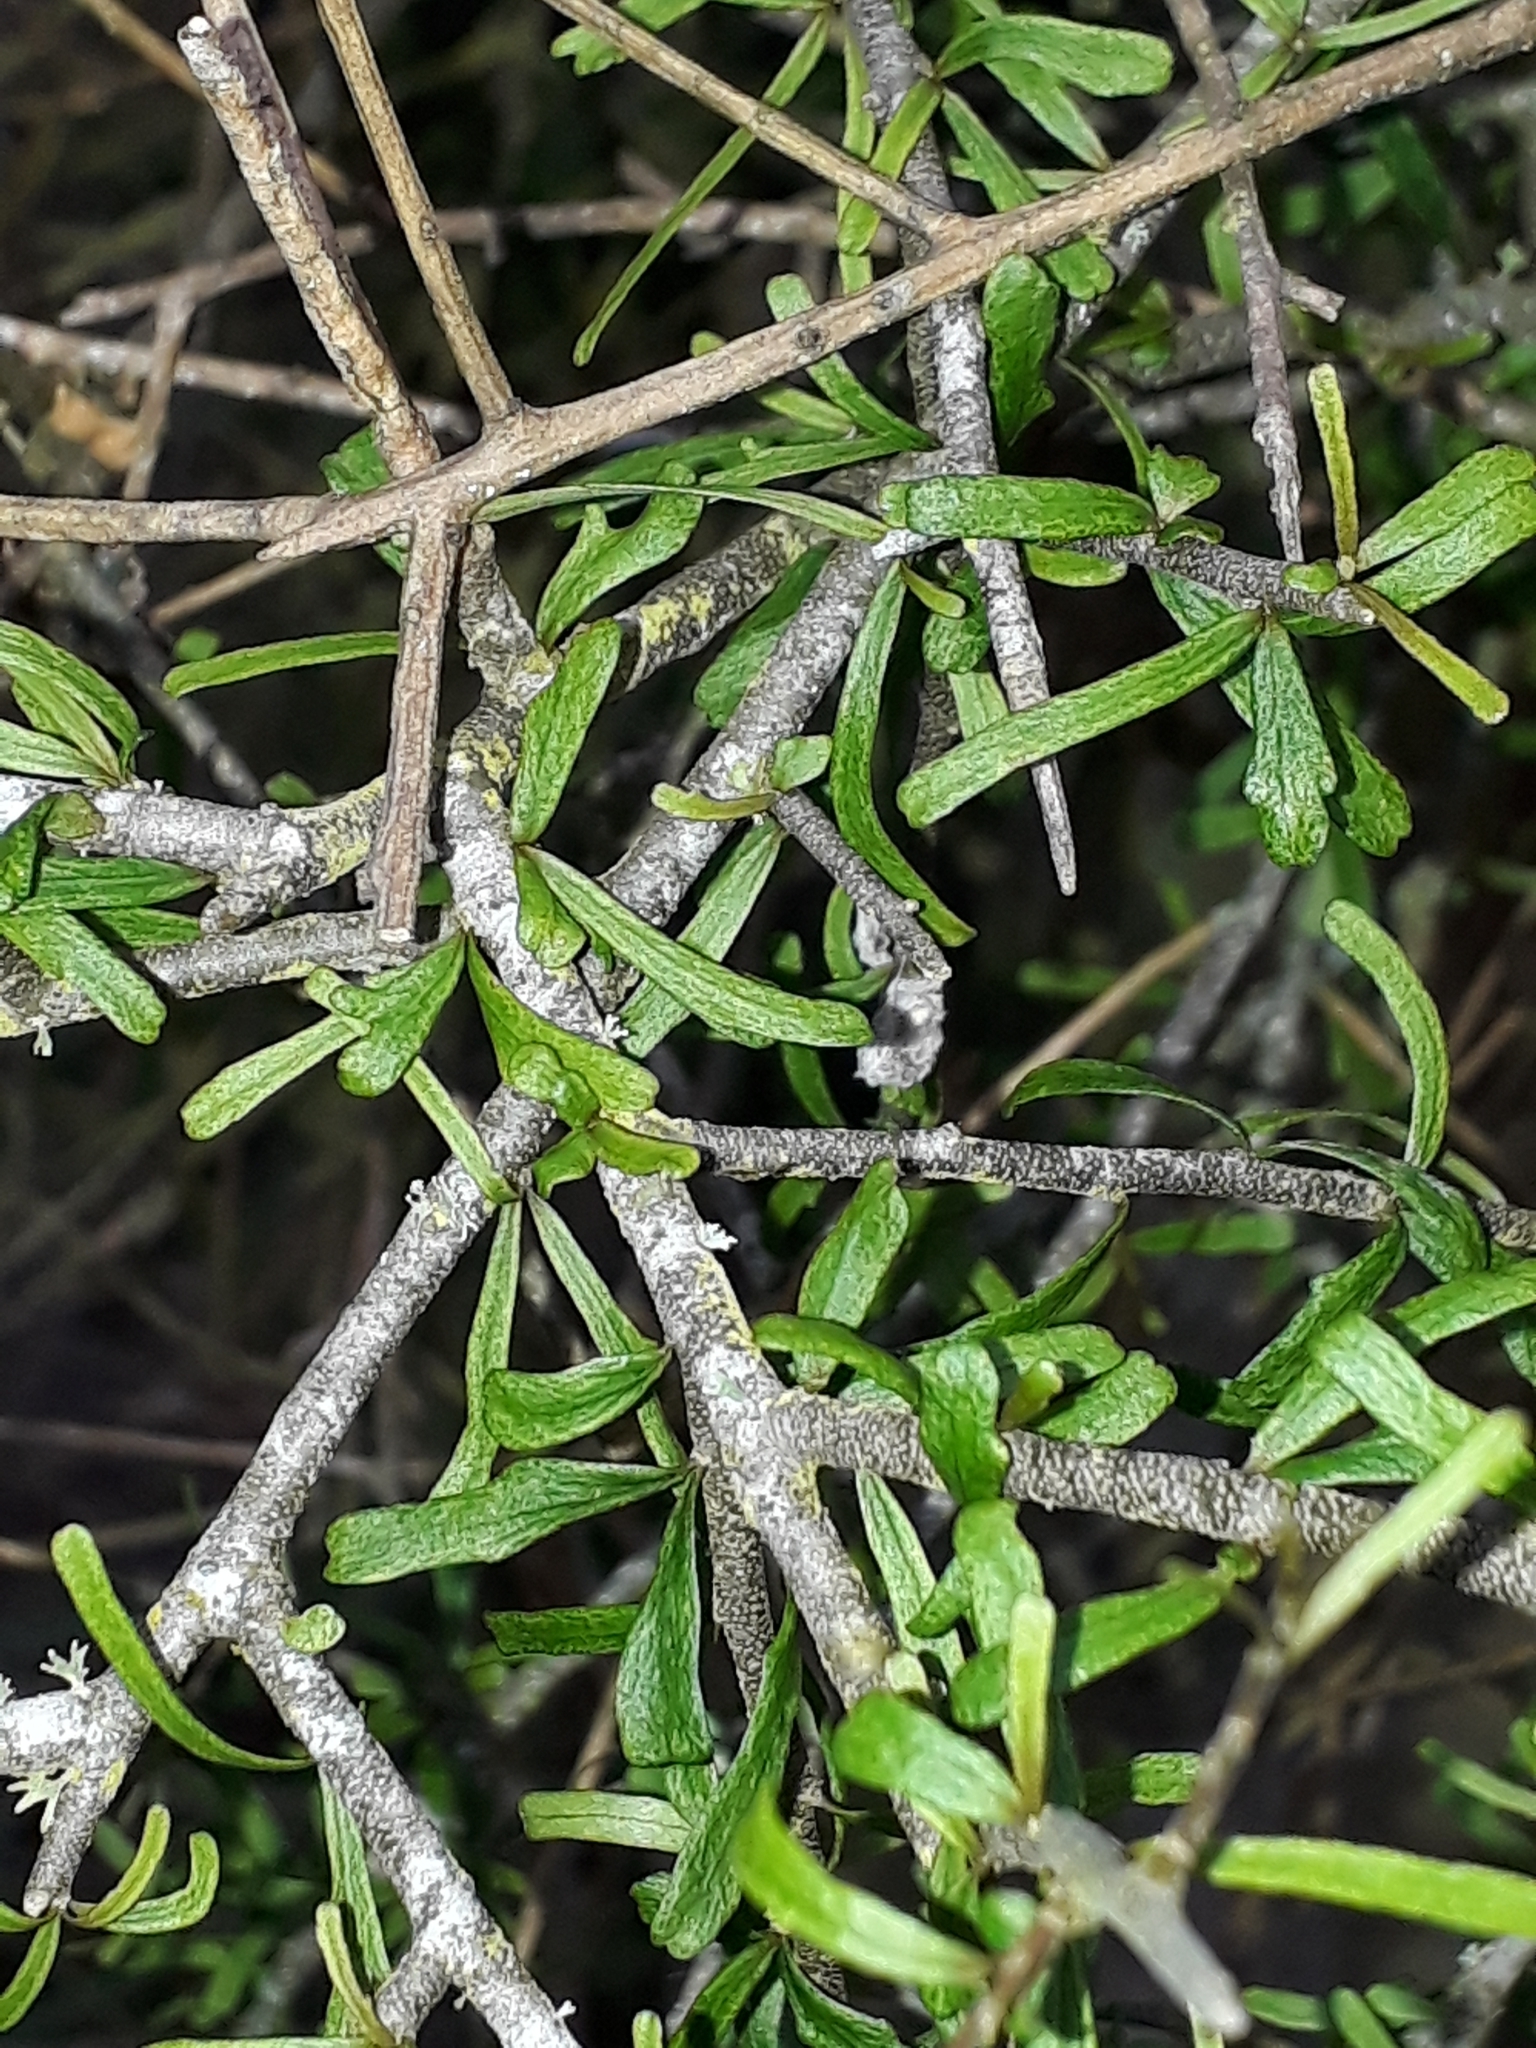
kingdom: Plantae
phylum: Tracheophyta
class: Magnoliopsida
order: Malpighiales
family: Violaceae
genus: Melicytus
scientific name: Melicytus flexuosus
